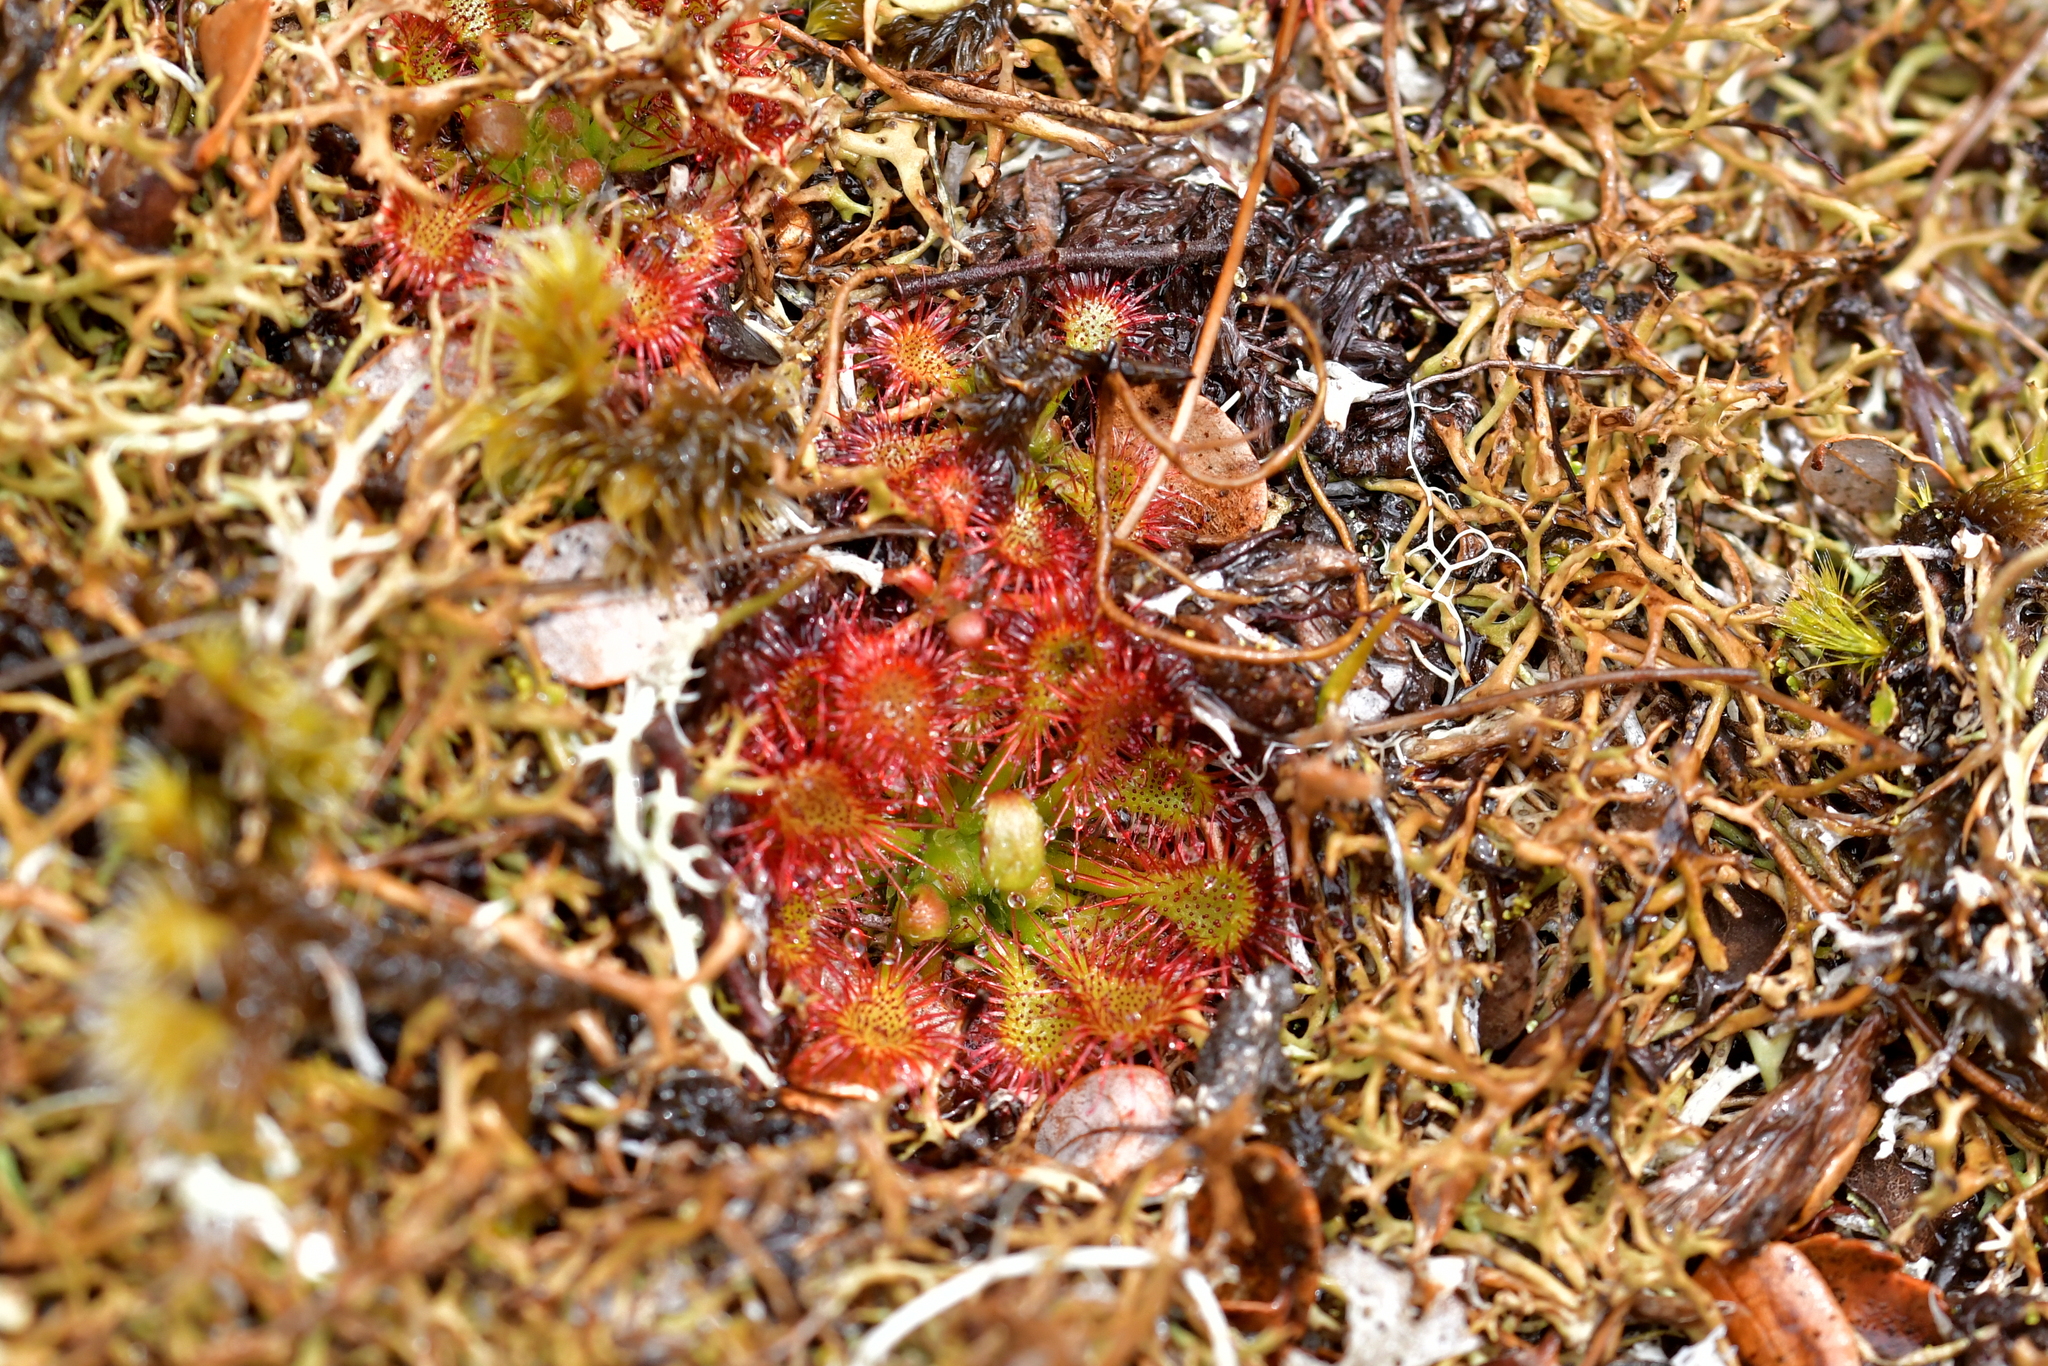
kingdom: Plantae
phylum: Tracheophyta
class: Magnoliopsida
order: Caryophyllales
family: Droseraceae
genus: Drosera
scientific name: Drosera spatulata
